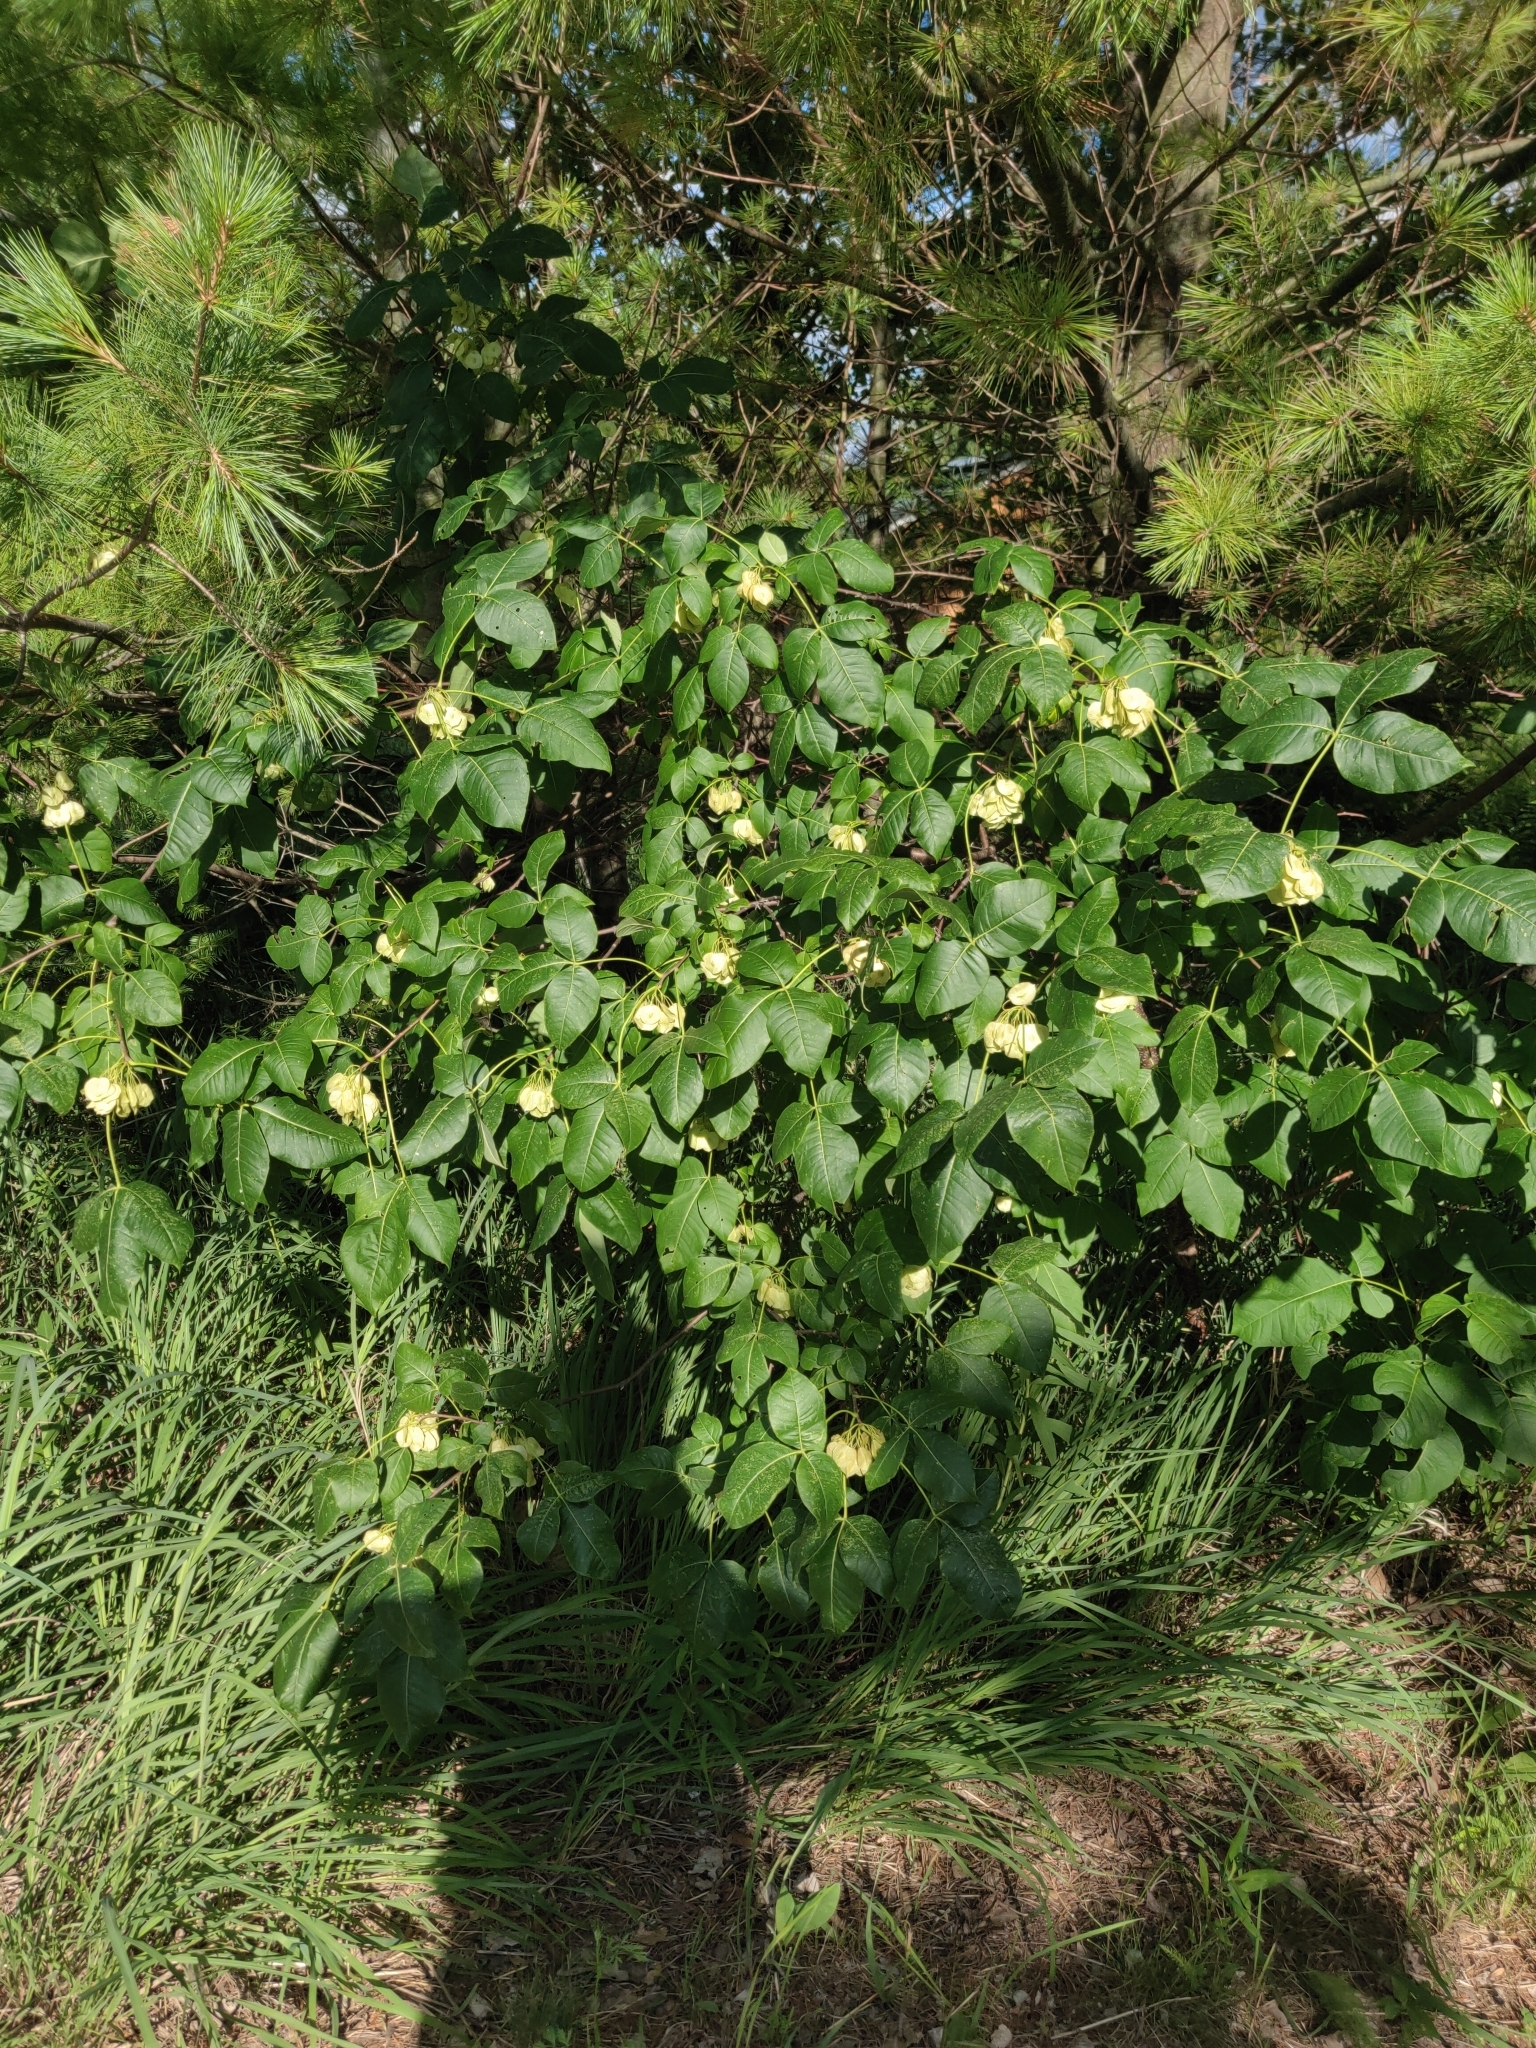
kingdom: Plantae
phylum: Tracheophyta
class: Magnoliopsida
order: Sapindales
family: Rutaceae
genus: Ptelea
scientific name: Ptelea trifoliata
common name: Common hop-tree
